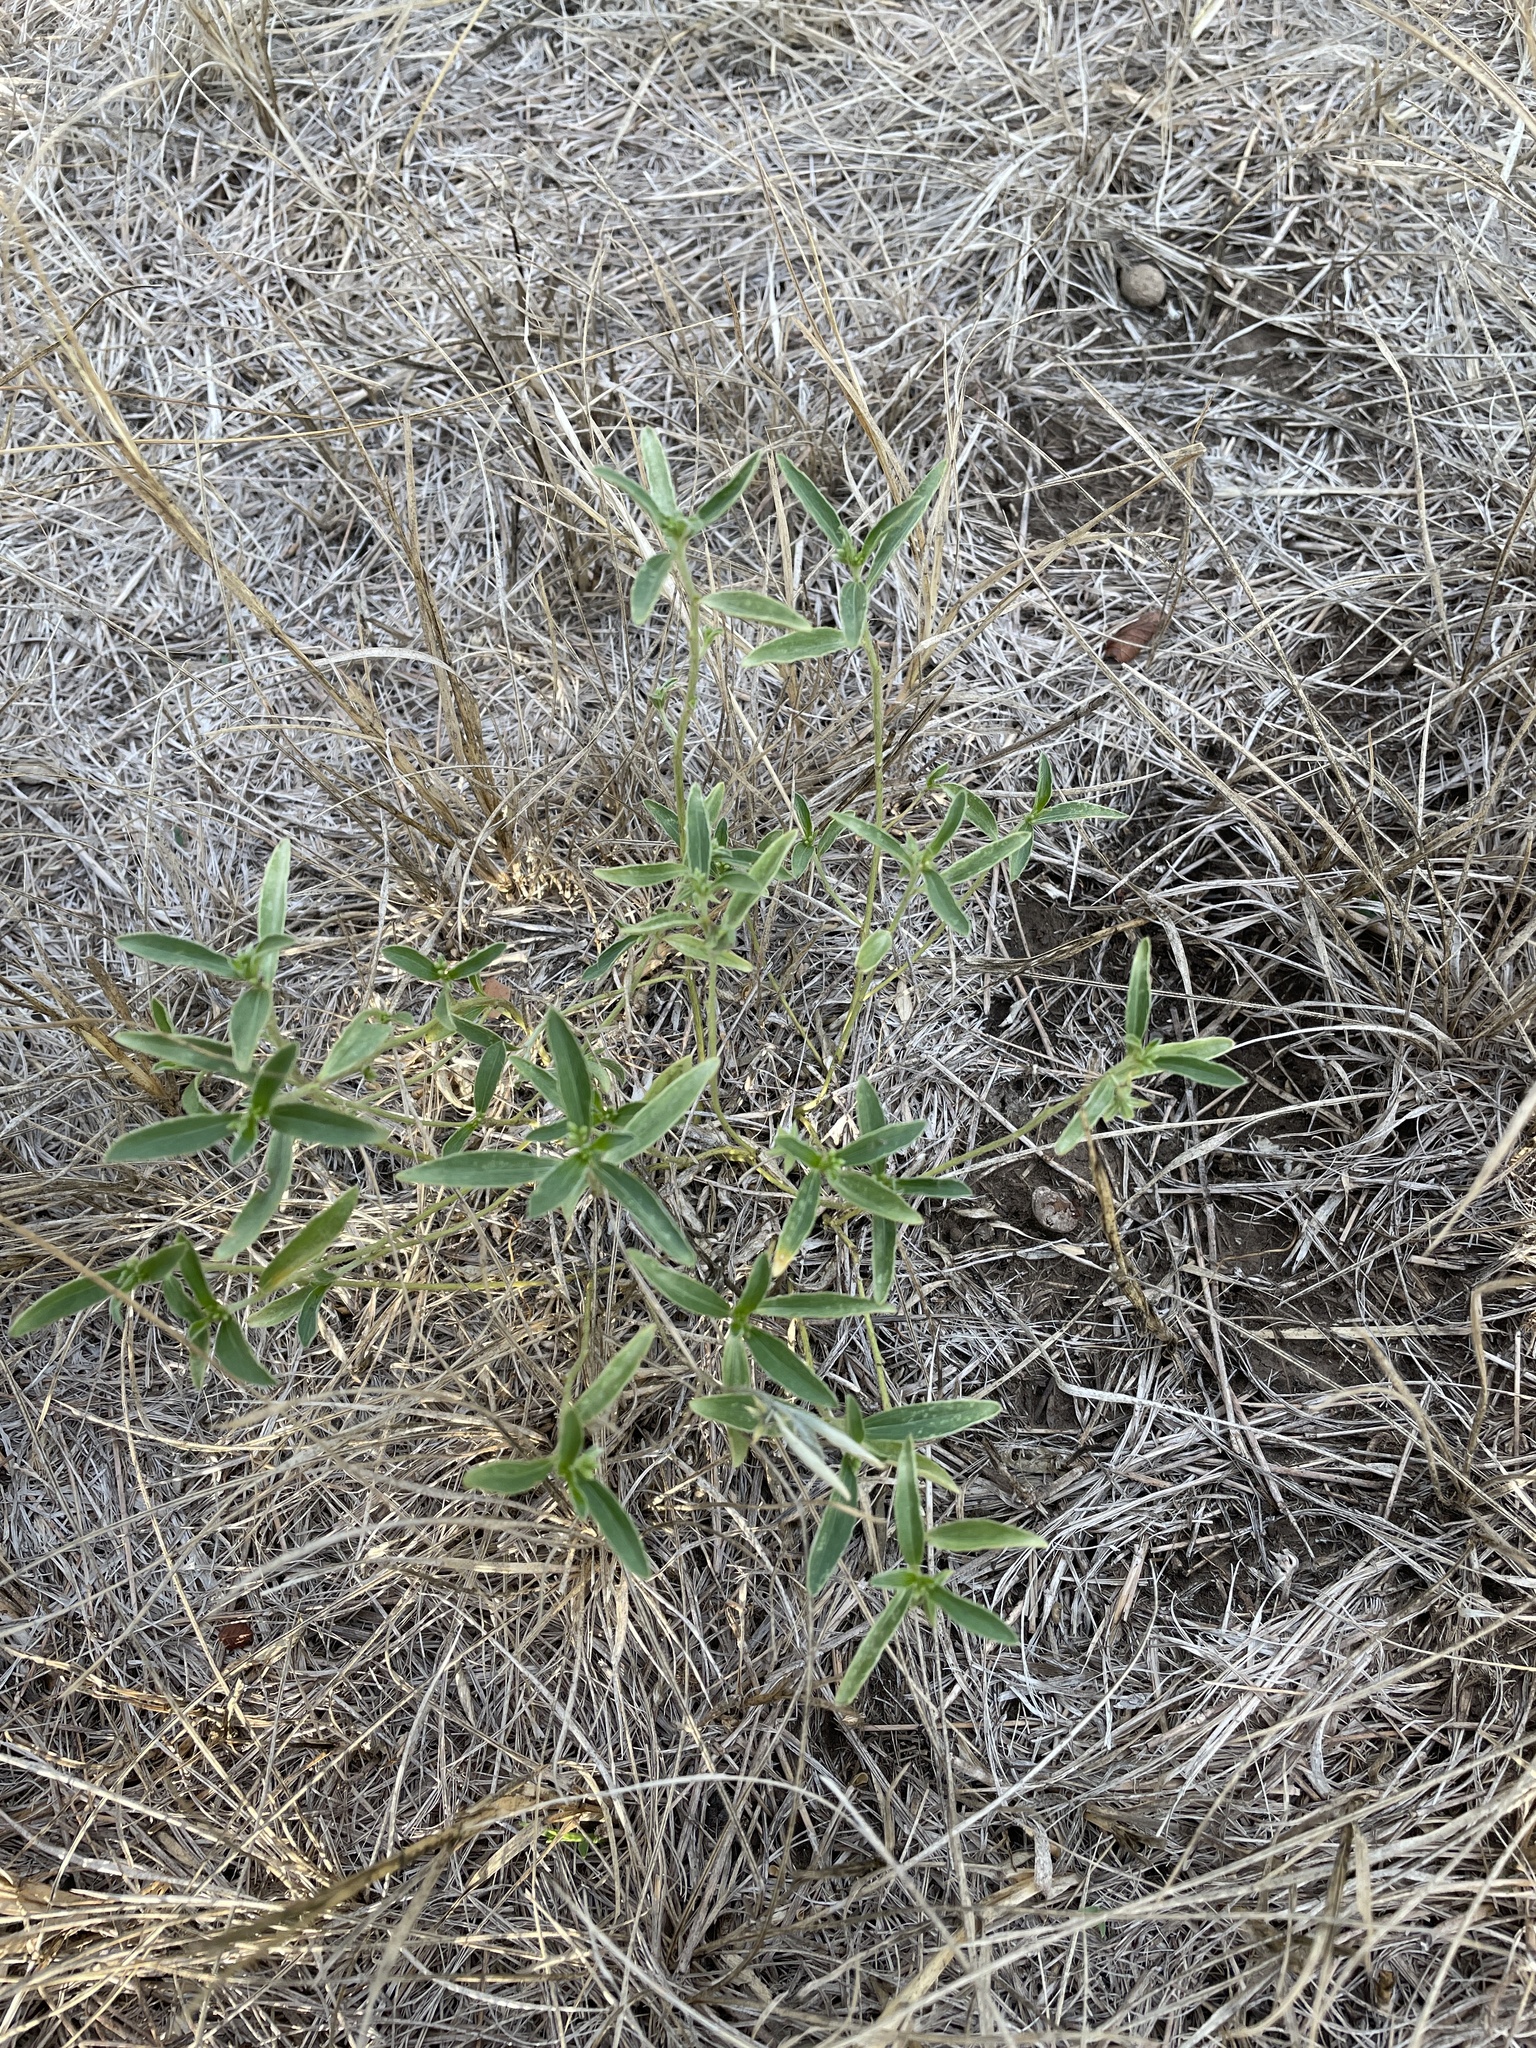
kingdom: Plantae
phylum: Tracheophyta
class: Magnoliopsida
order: Malpighiales
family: Euphorbiaceae
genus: Ditaxis
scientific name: Ditaxis humilis
